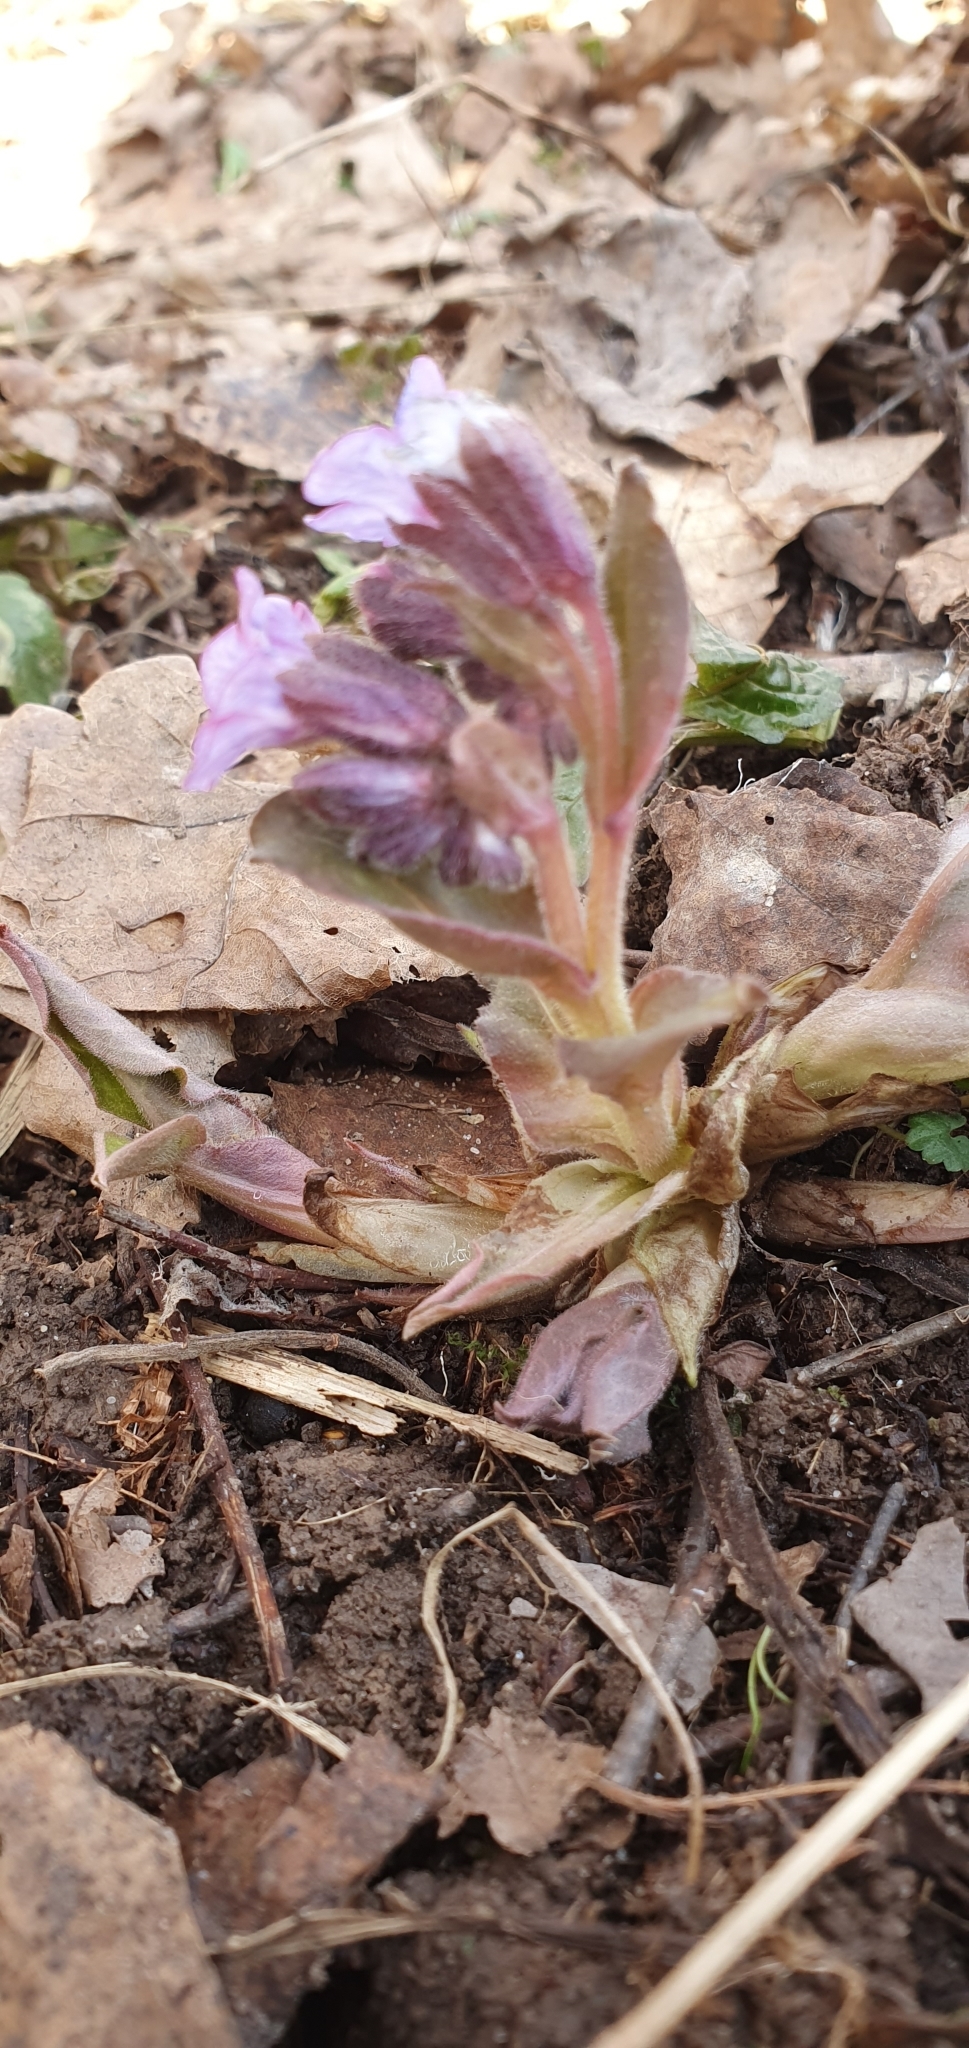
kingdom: Plantae
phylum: Tracheophyta
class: Magnoliopsida
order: Boraginales
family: Boraginaceae
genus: Pulmonaria
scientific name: Pulmonaria obscura
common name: Suffolk lungwort
